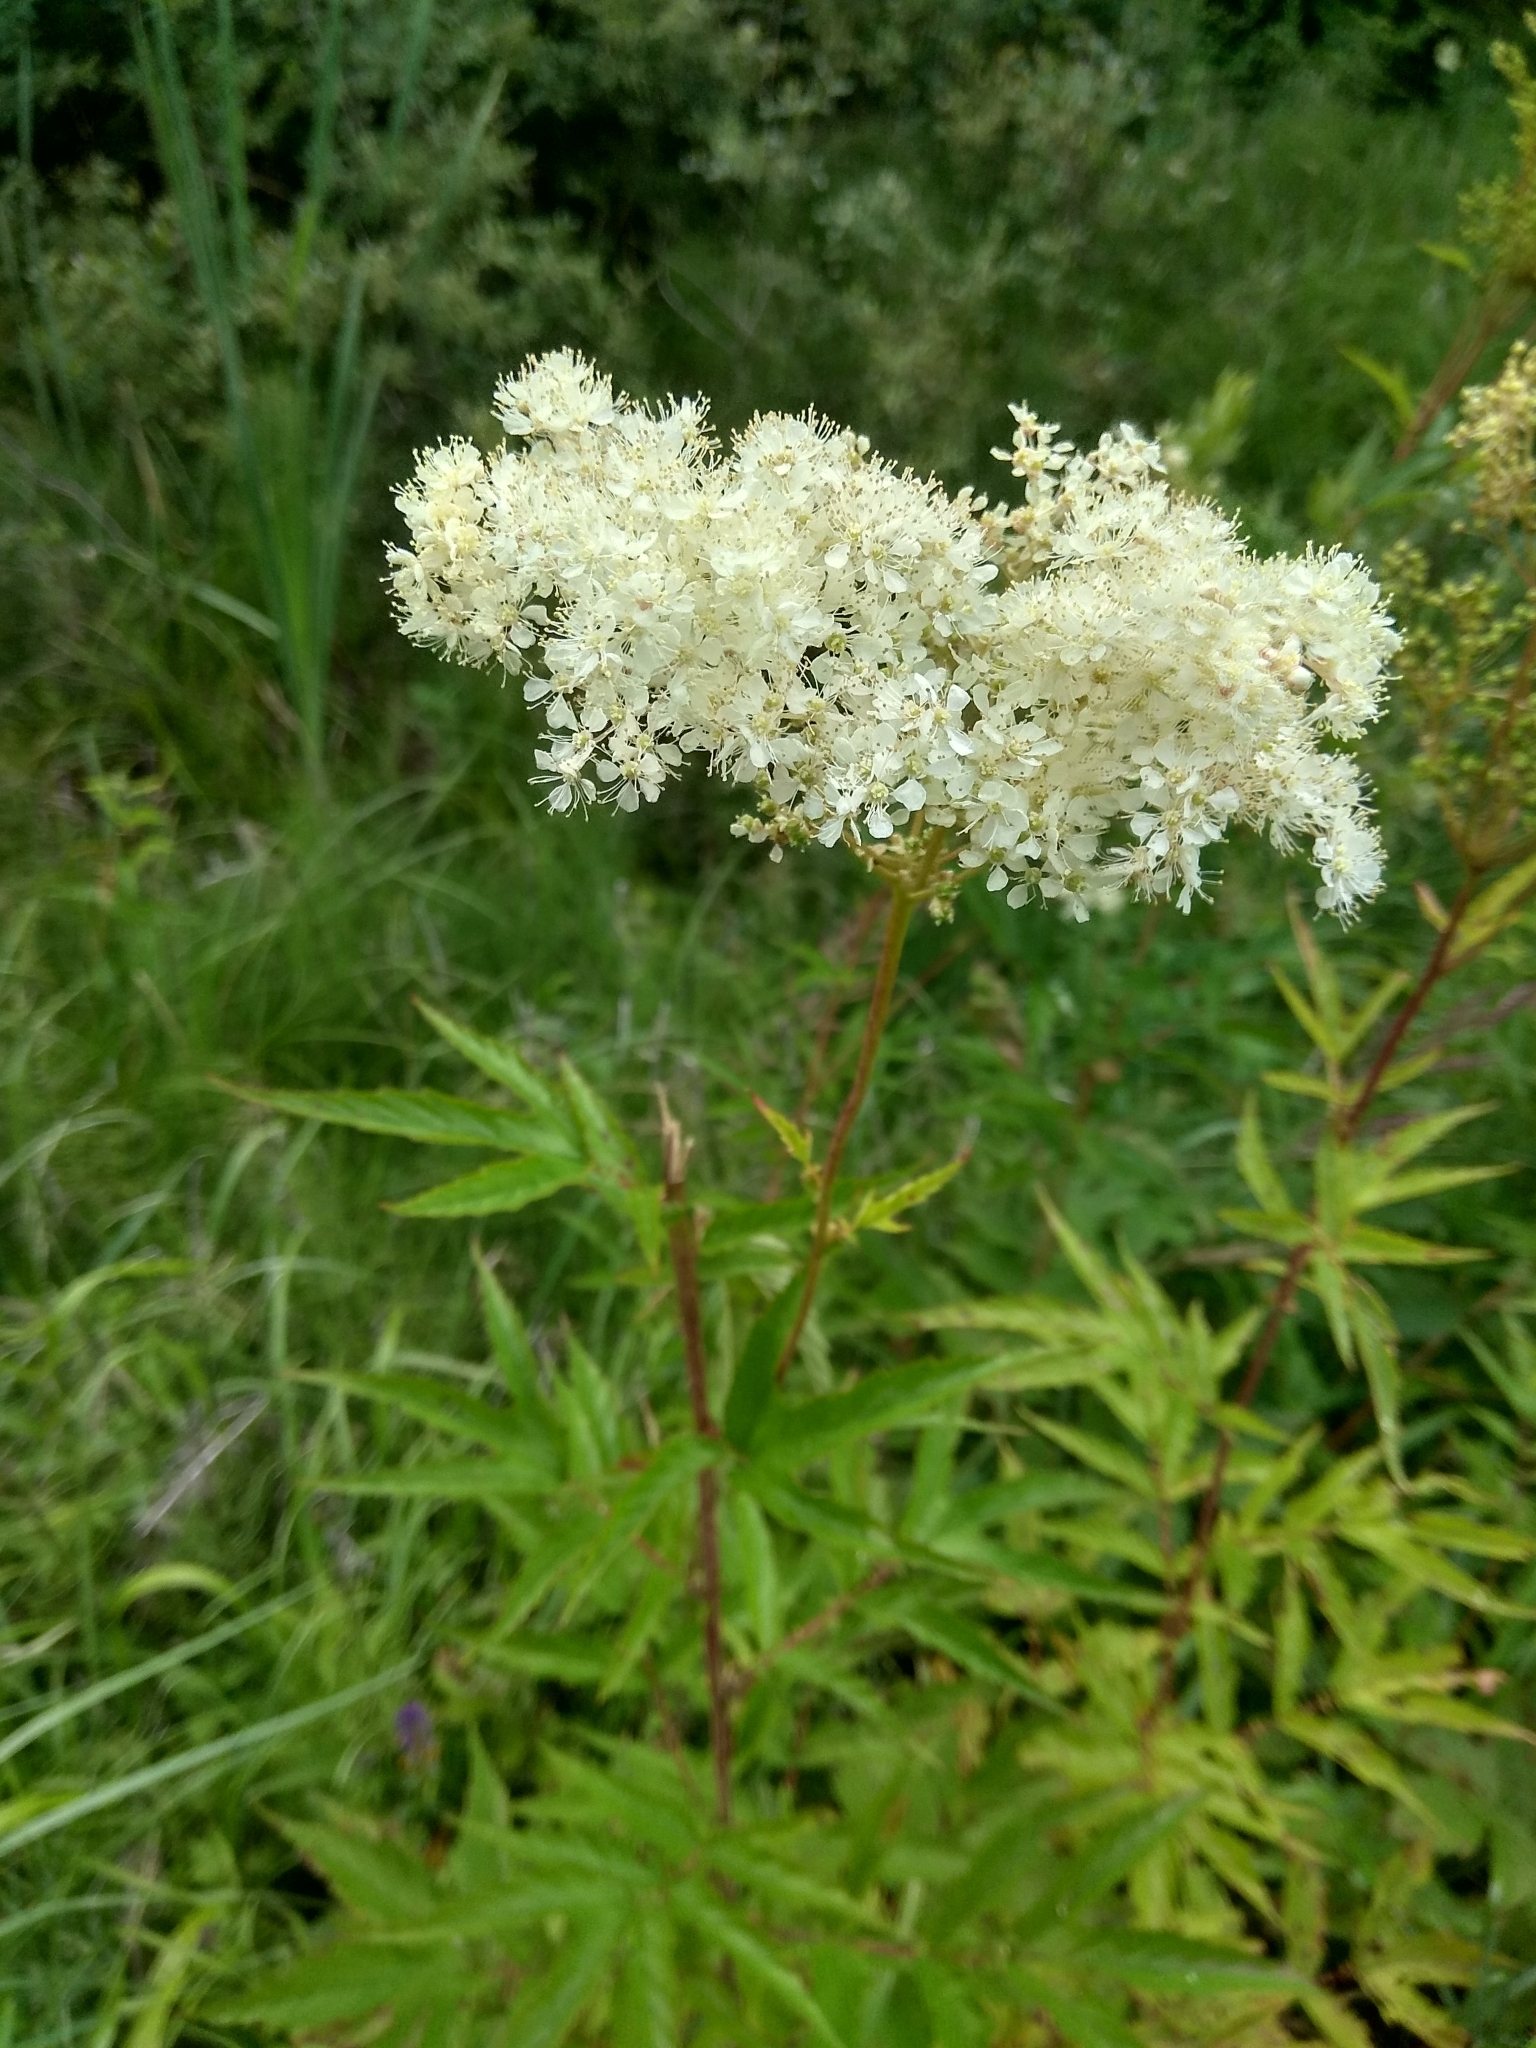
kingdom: Plantae
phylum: Tracheophyta
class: Magnoliopsida
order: Rosales
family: Rosaceae
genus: Filipendula
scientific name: Filipendula ulmaria
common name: Meadowsweet
